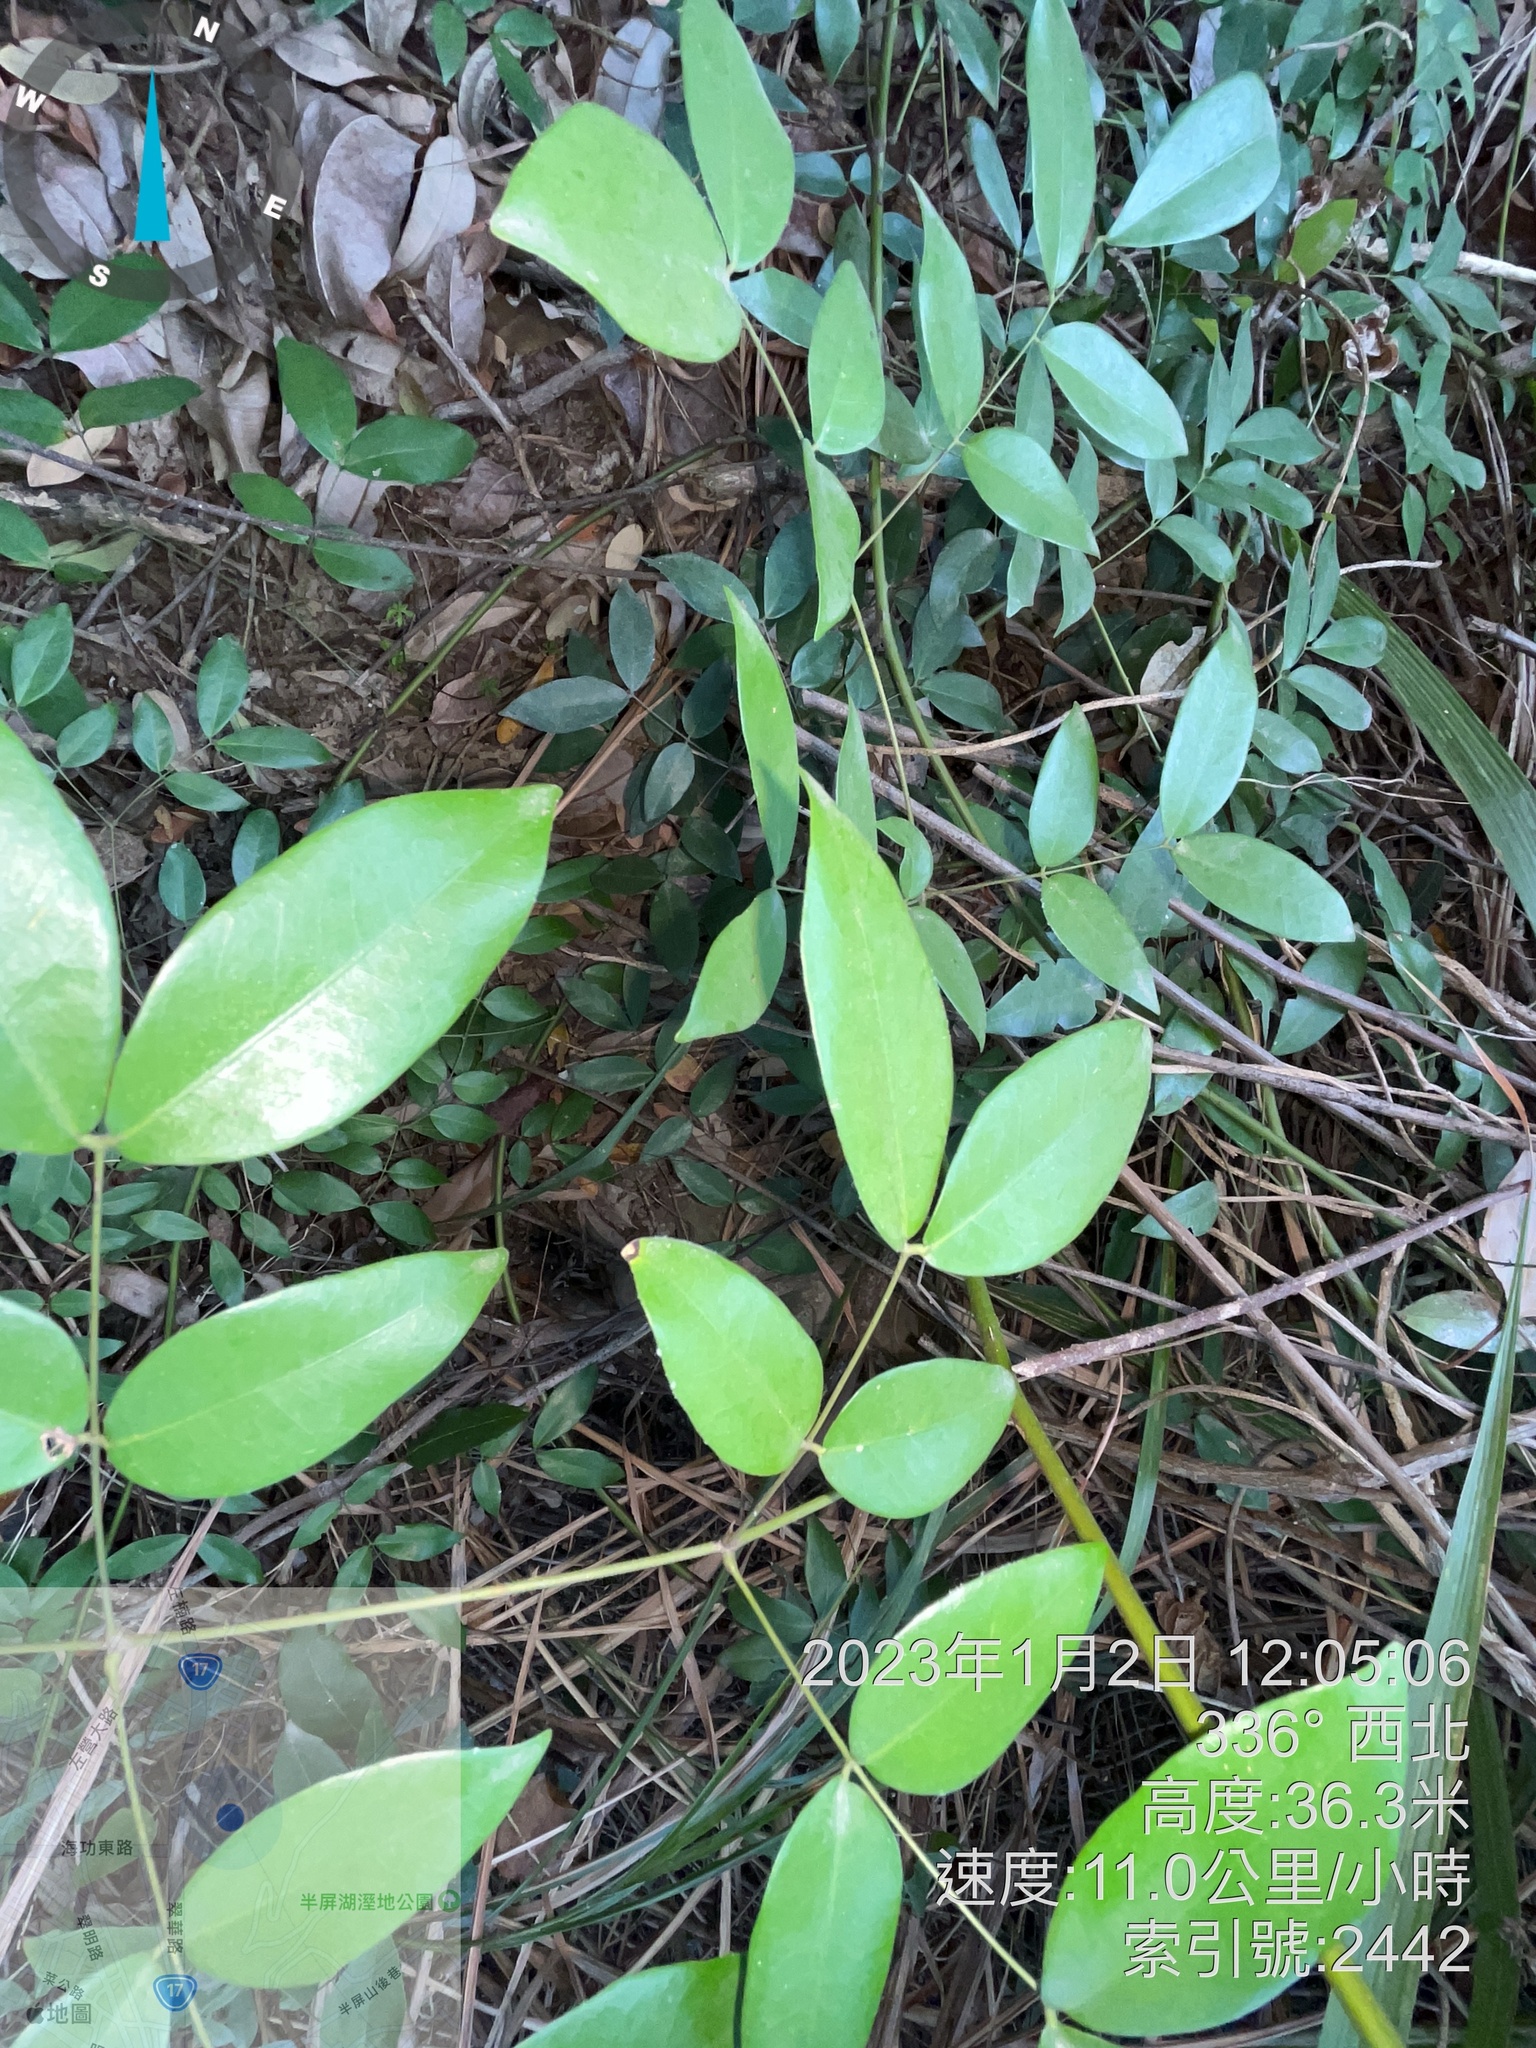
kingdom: Plantae
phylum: Tracheophyta
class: Magnoliopsida
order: Fabales
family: Fabaceae
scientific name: Fabaceae
